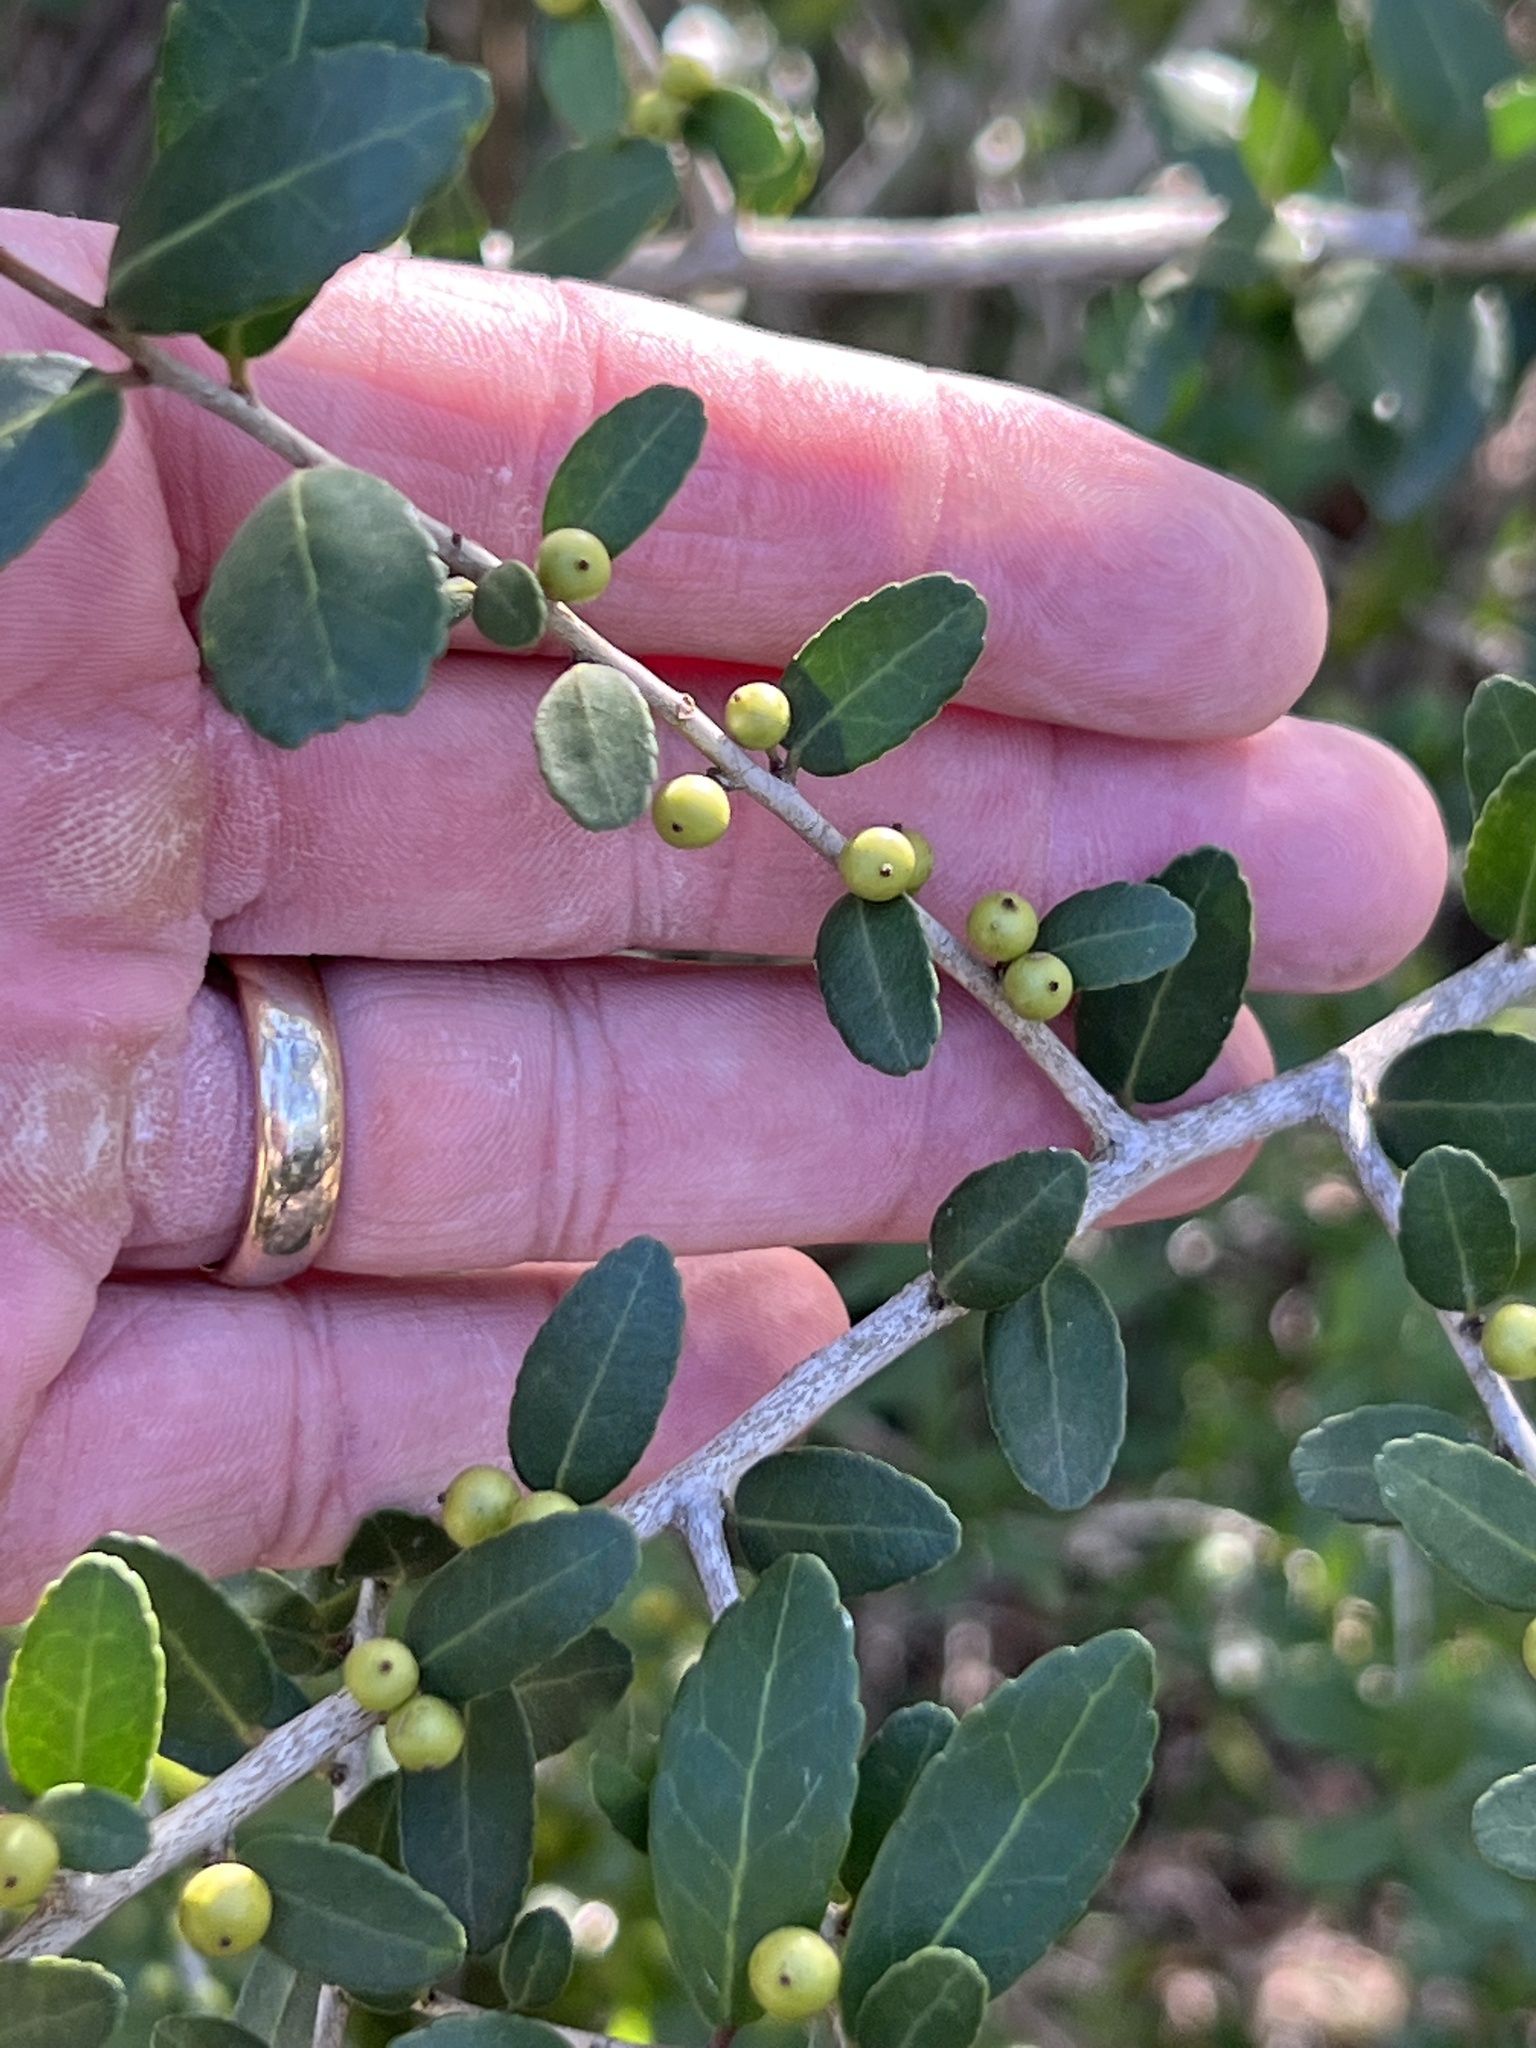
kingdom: Plantae
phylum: Tracheophyta
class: Magnoliopsida
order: Aquifoliales
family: Aquifoliaceae
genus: Ilex
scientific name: Ilex vomitoria
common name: Yaupon holly
